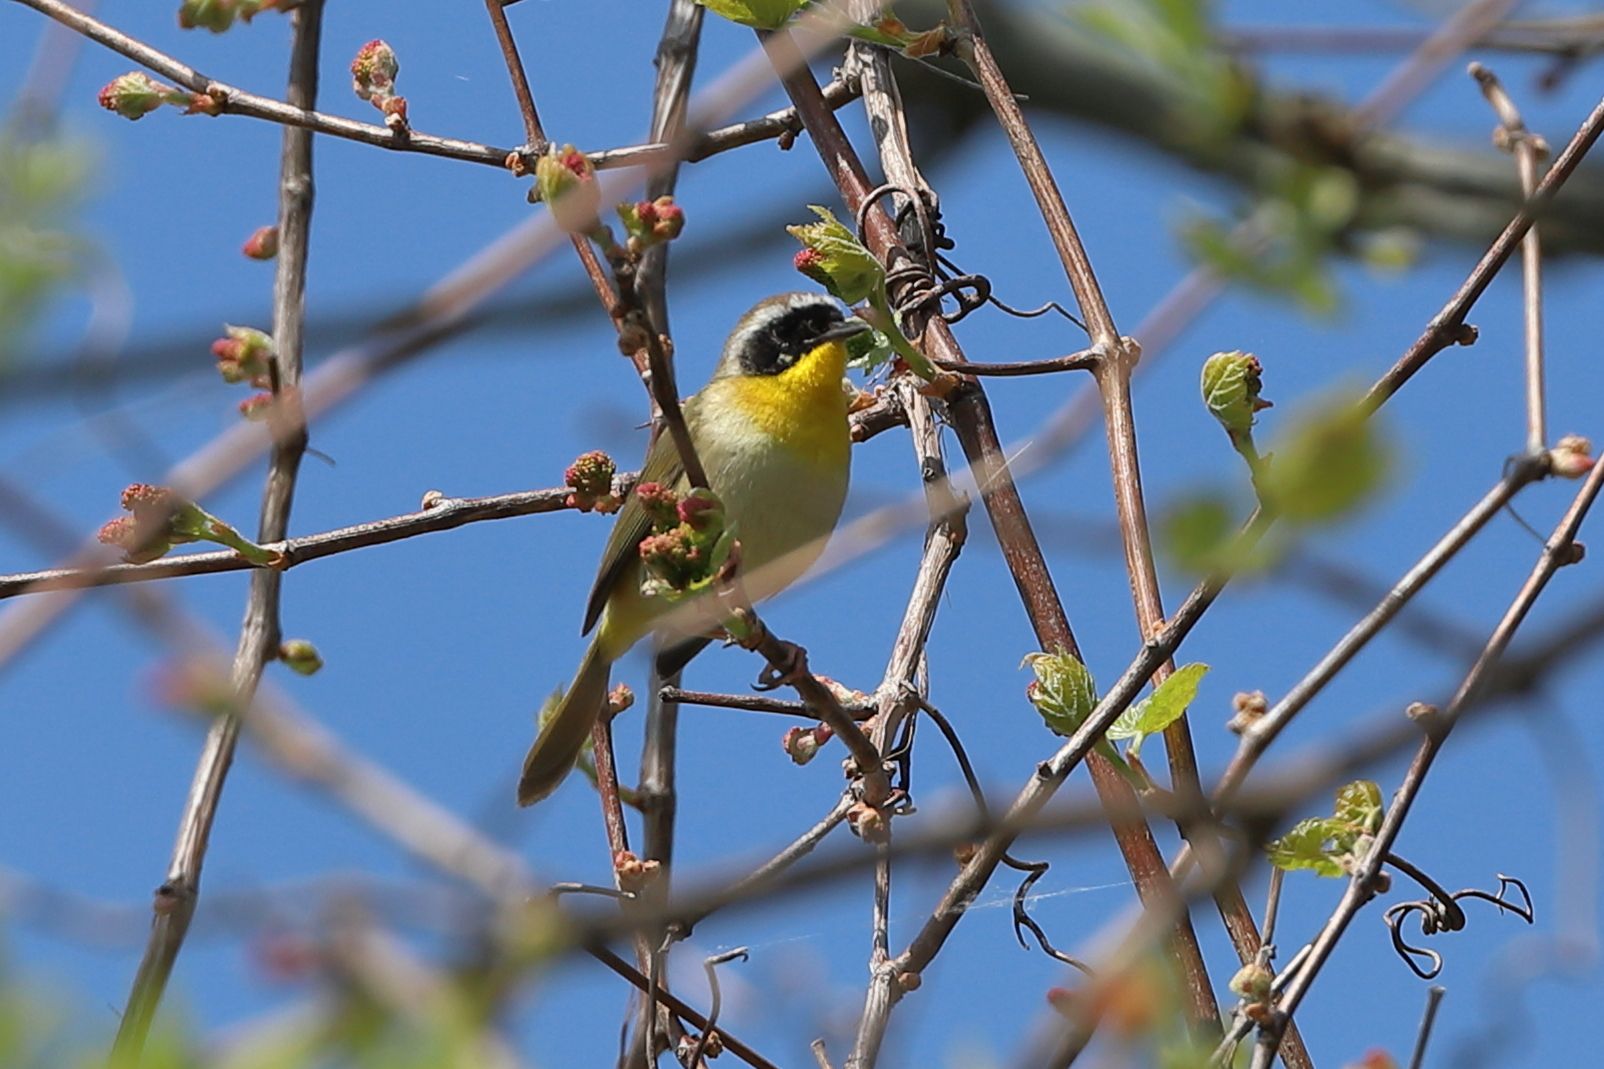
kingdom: Animalia
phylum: Chordata
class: Aves
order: Passeriformes
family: Parulidae
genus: Geothlypis
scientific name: Geothlypis trichas
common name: Common yellowthroat
